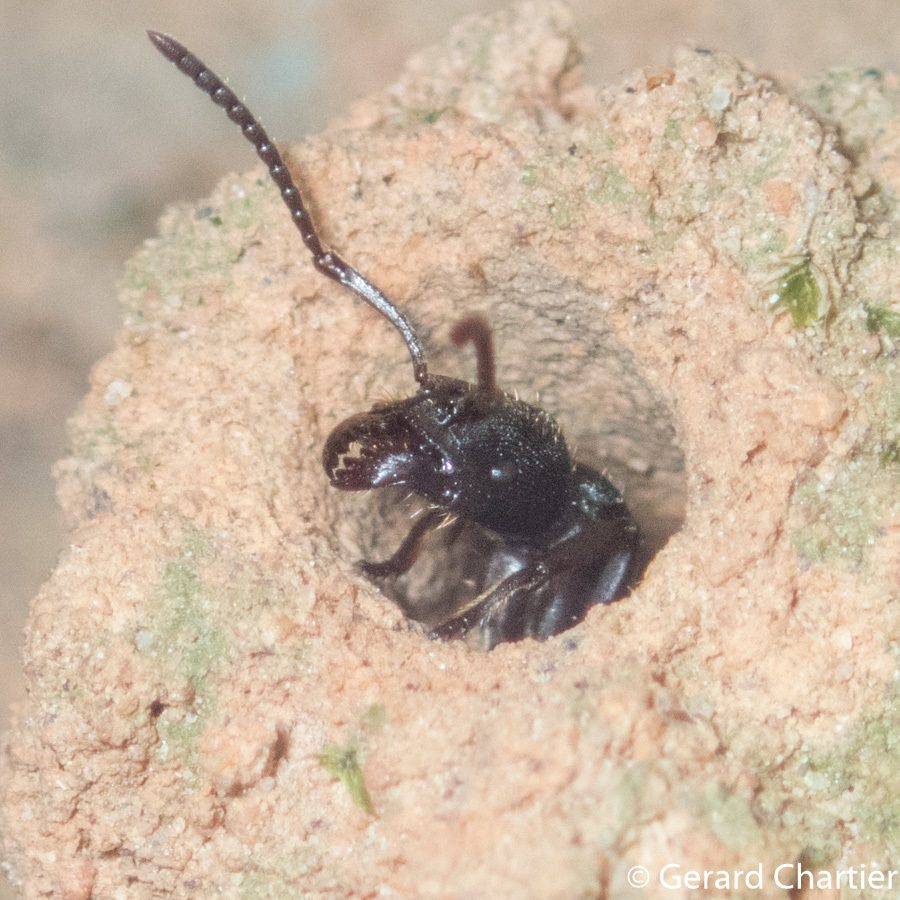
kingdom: Animalia
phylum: Arthropoda
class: Insecta
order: Hymenoptera
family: Formicidae
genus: Odontoponera
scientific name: Odontoponera denticulata
